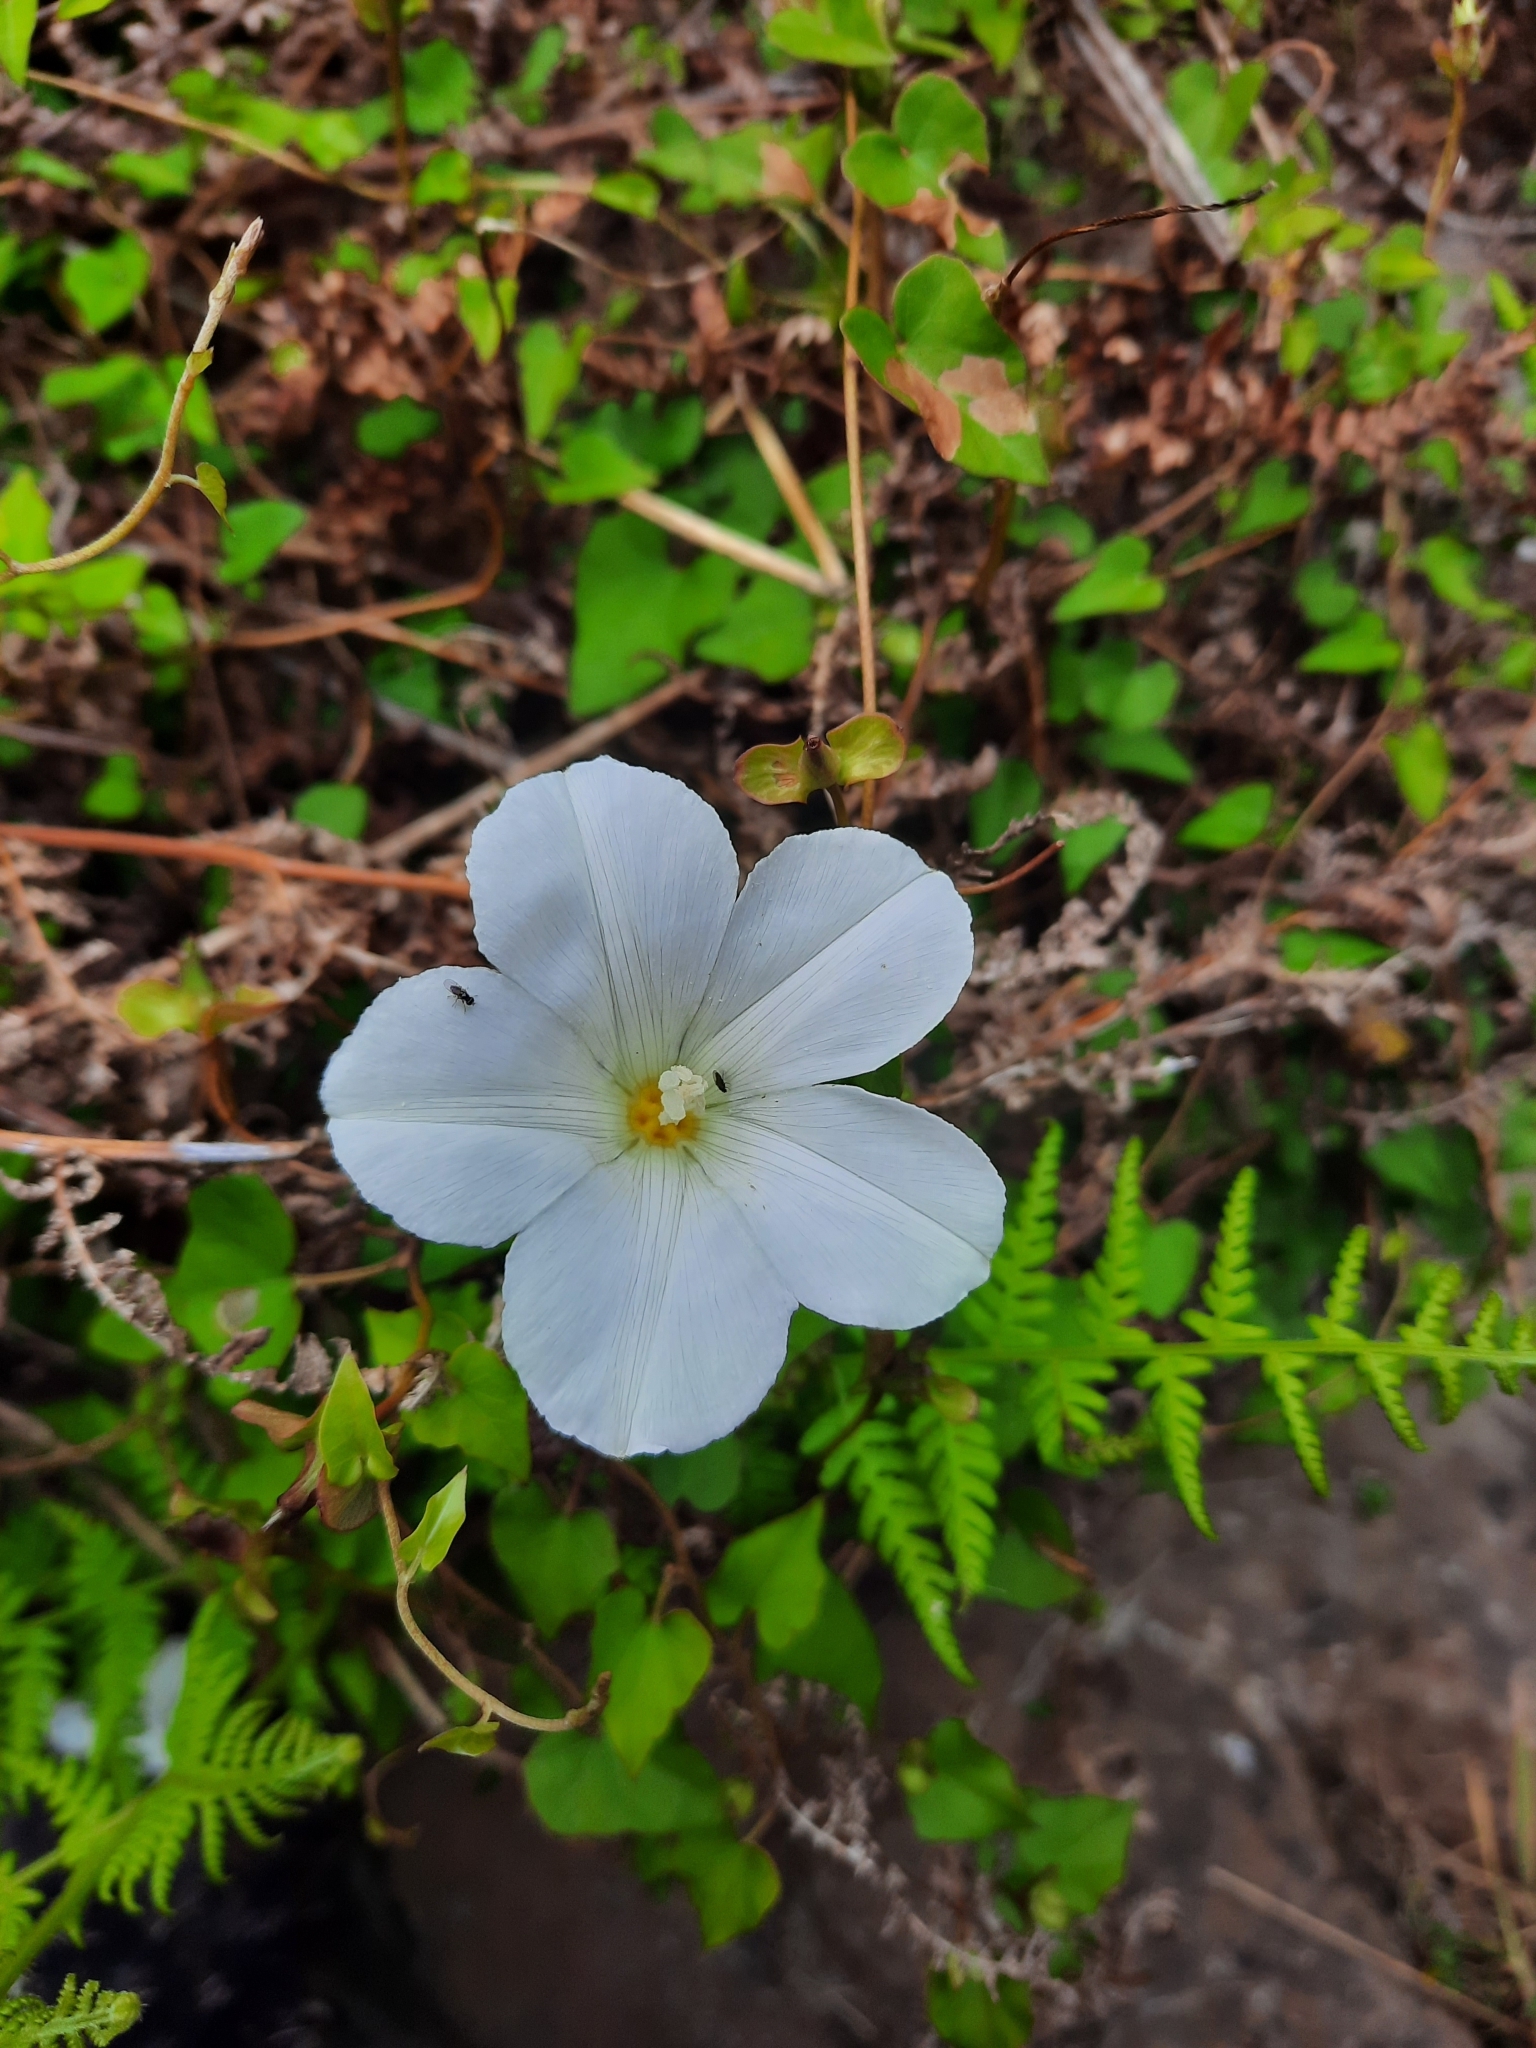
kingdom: Plantae
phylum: Tracheophyta
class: Magnoliopsida
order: Solanales
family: Convolvulaceae
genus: Calystegia
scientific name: Calystegia tuguriorum
